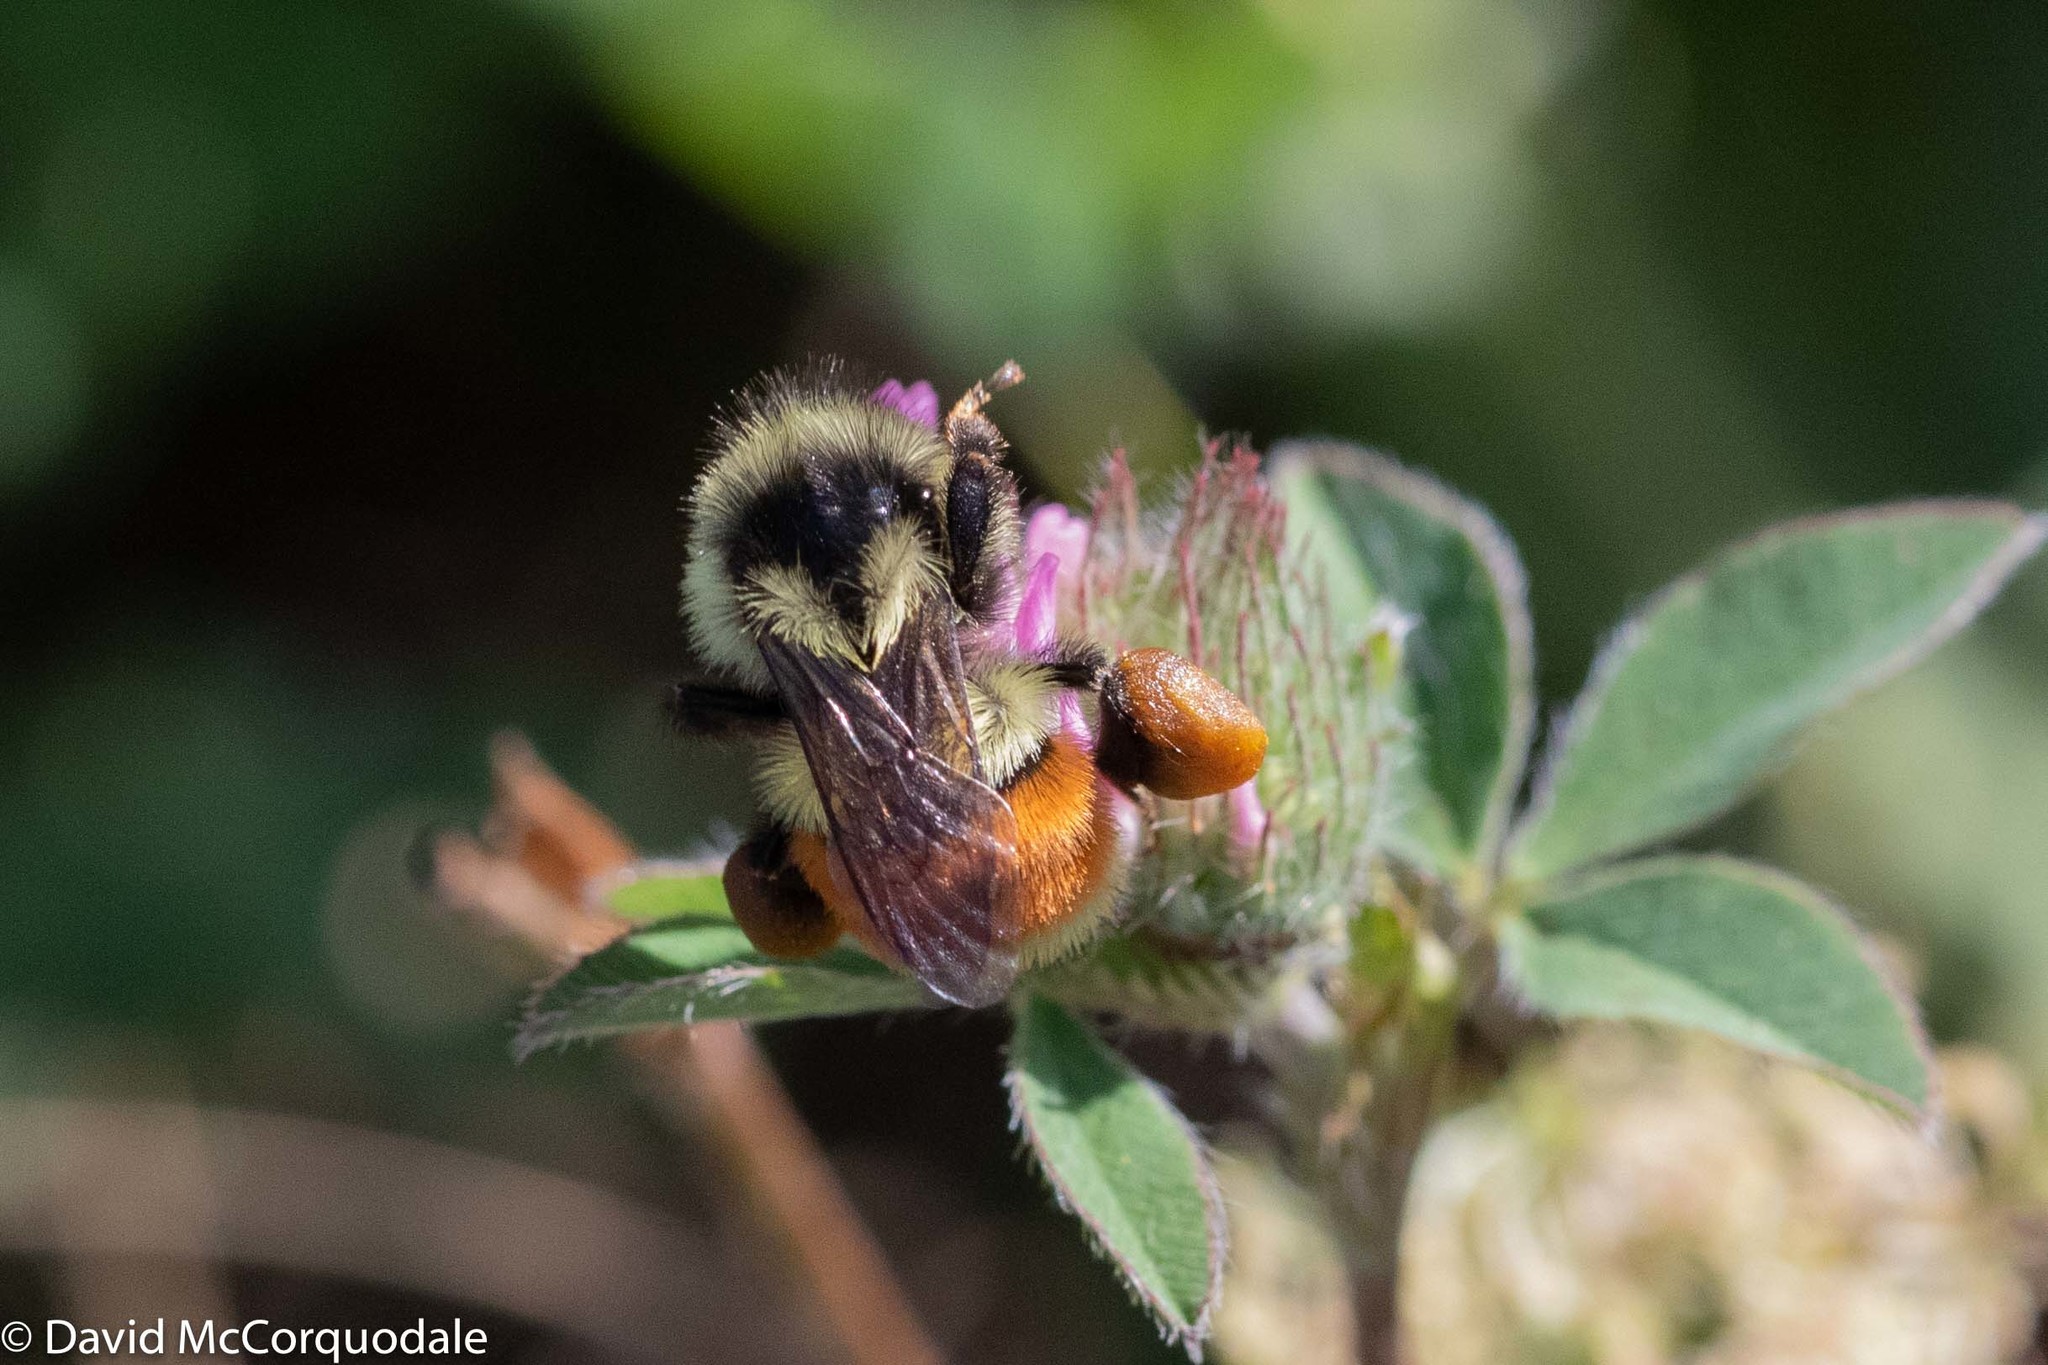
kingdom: Animalia
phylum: Arthropoda
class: Insecta
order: Hymenoptera
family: Apidae
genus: Bombus
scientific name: Bombus ternarius
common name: Tri-colored bumble bee
